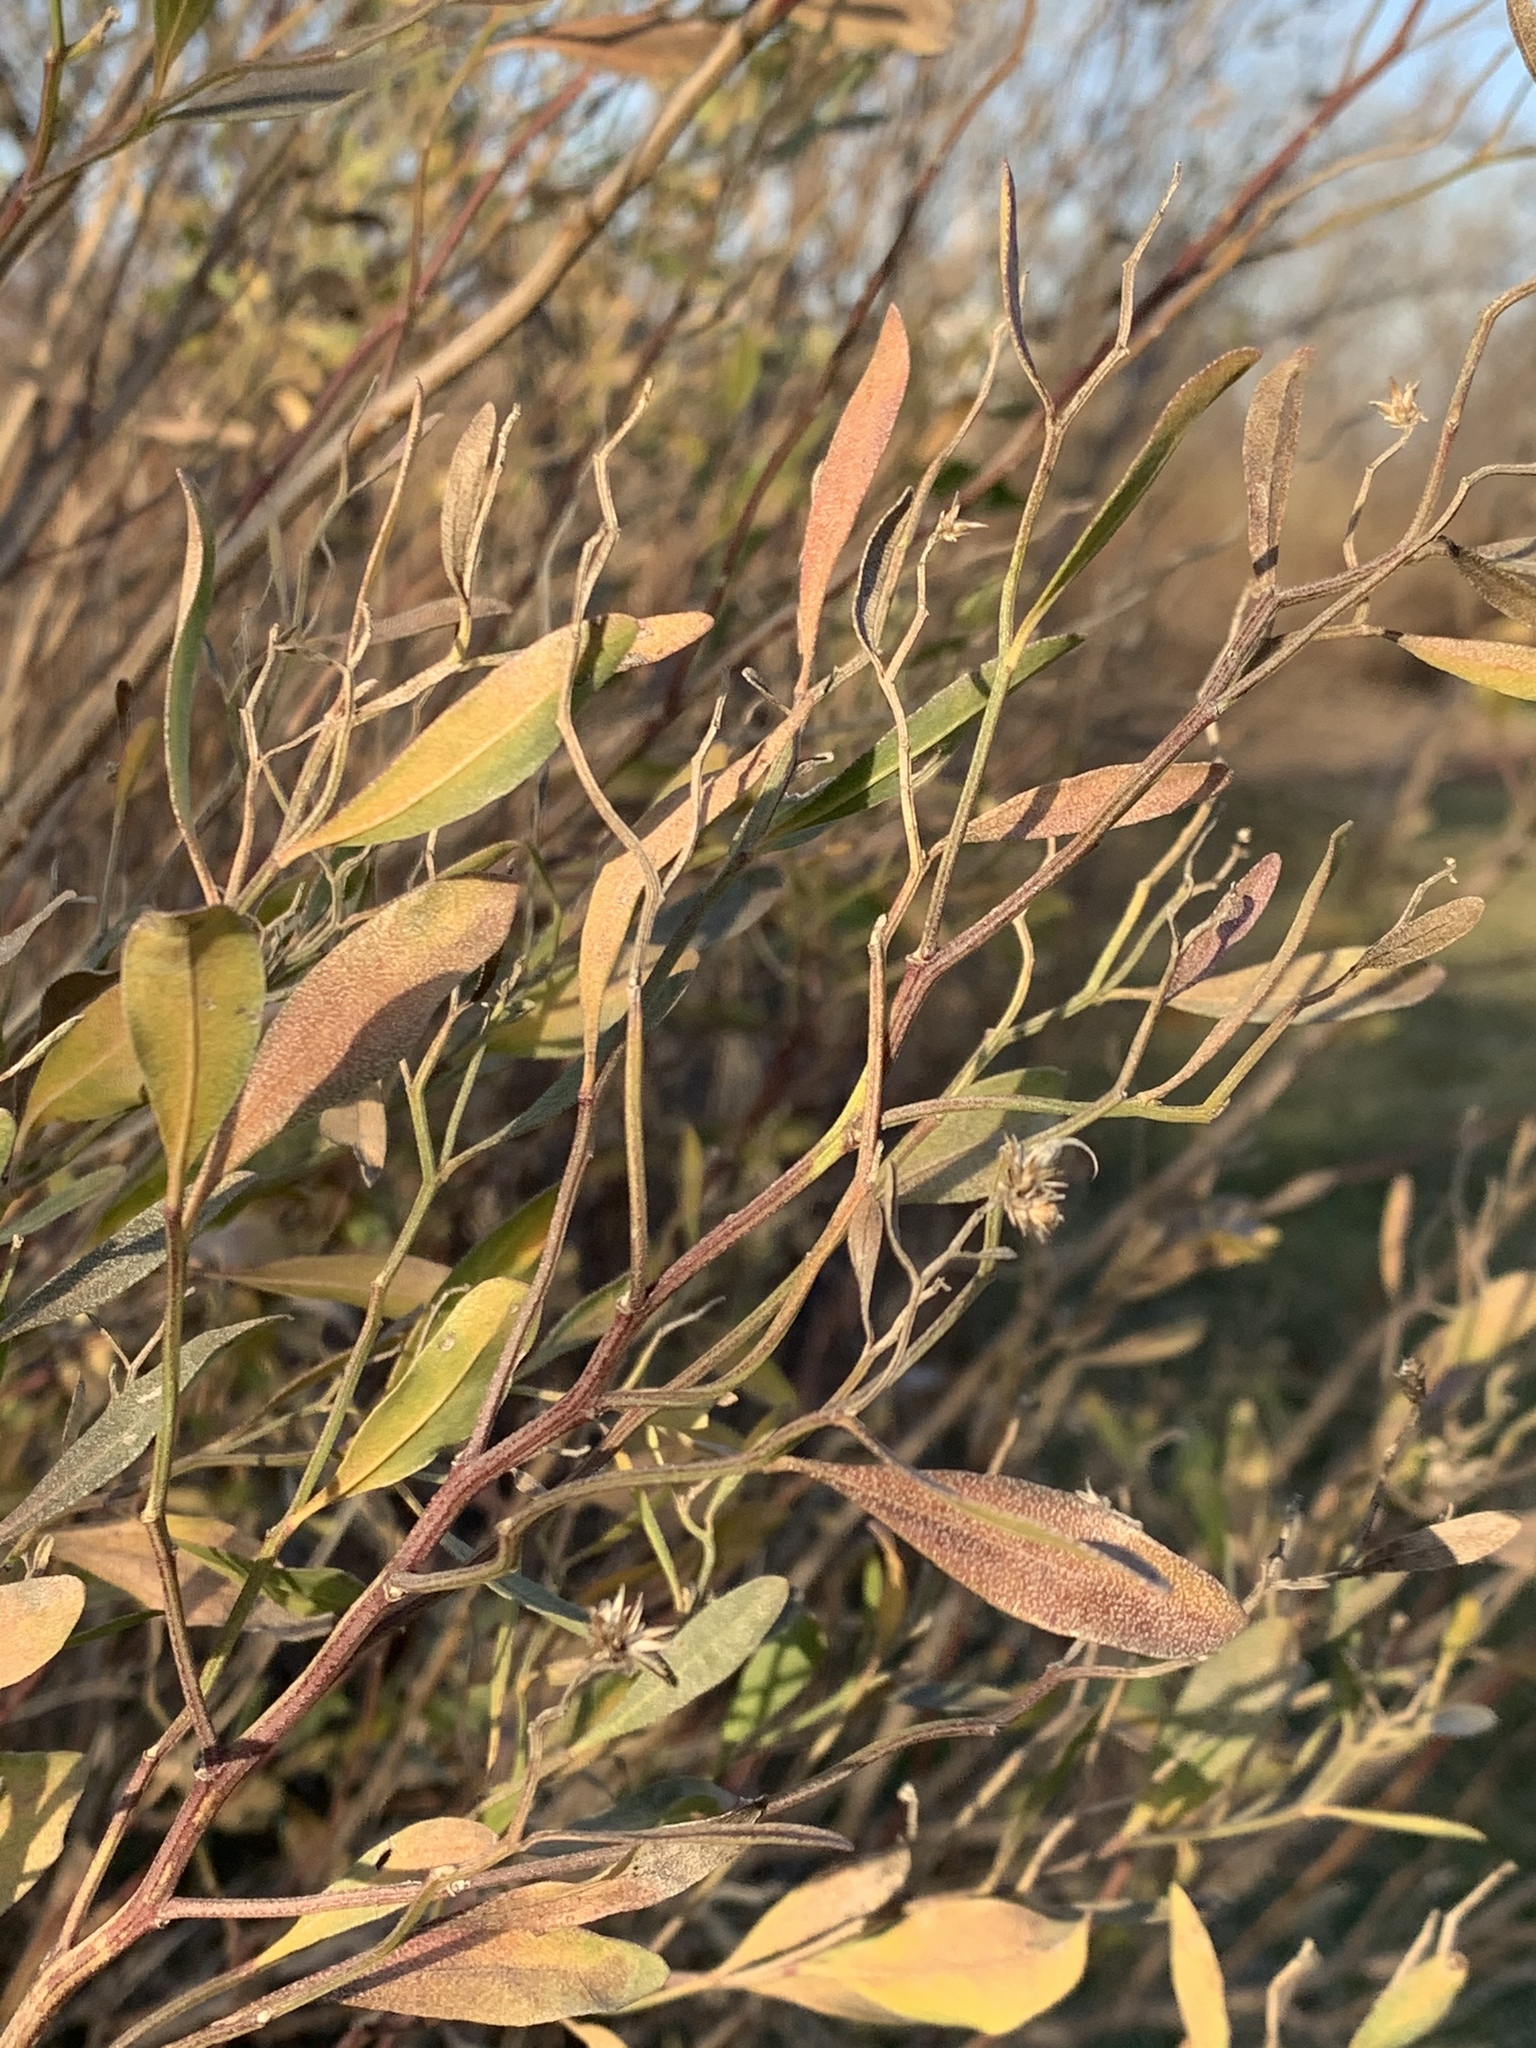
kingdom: Plantae
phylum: Tracheophyta
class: Magnoliopsida
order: Asterales
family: Asteraceae
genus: Baccharis
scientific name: Baccharis halimifolia
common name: Eastern baccharis
